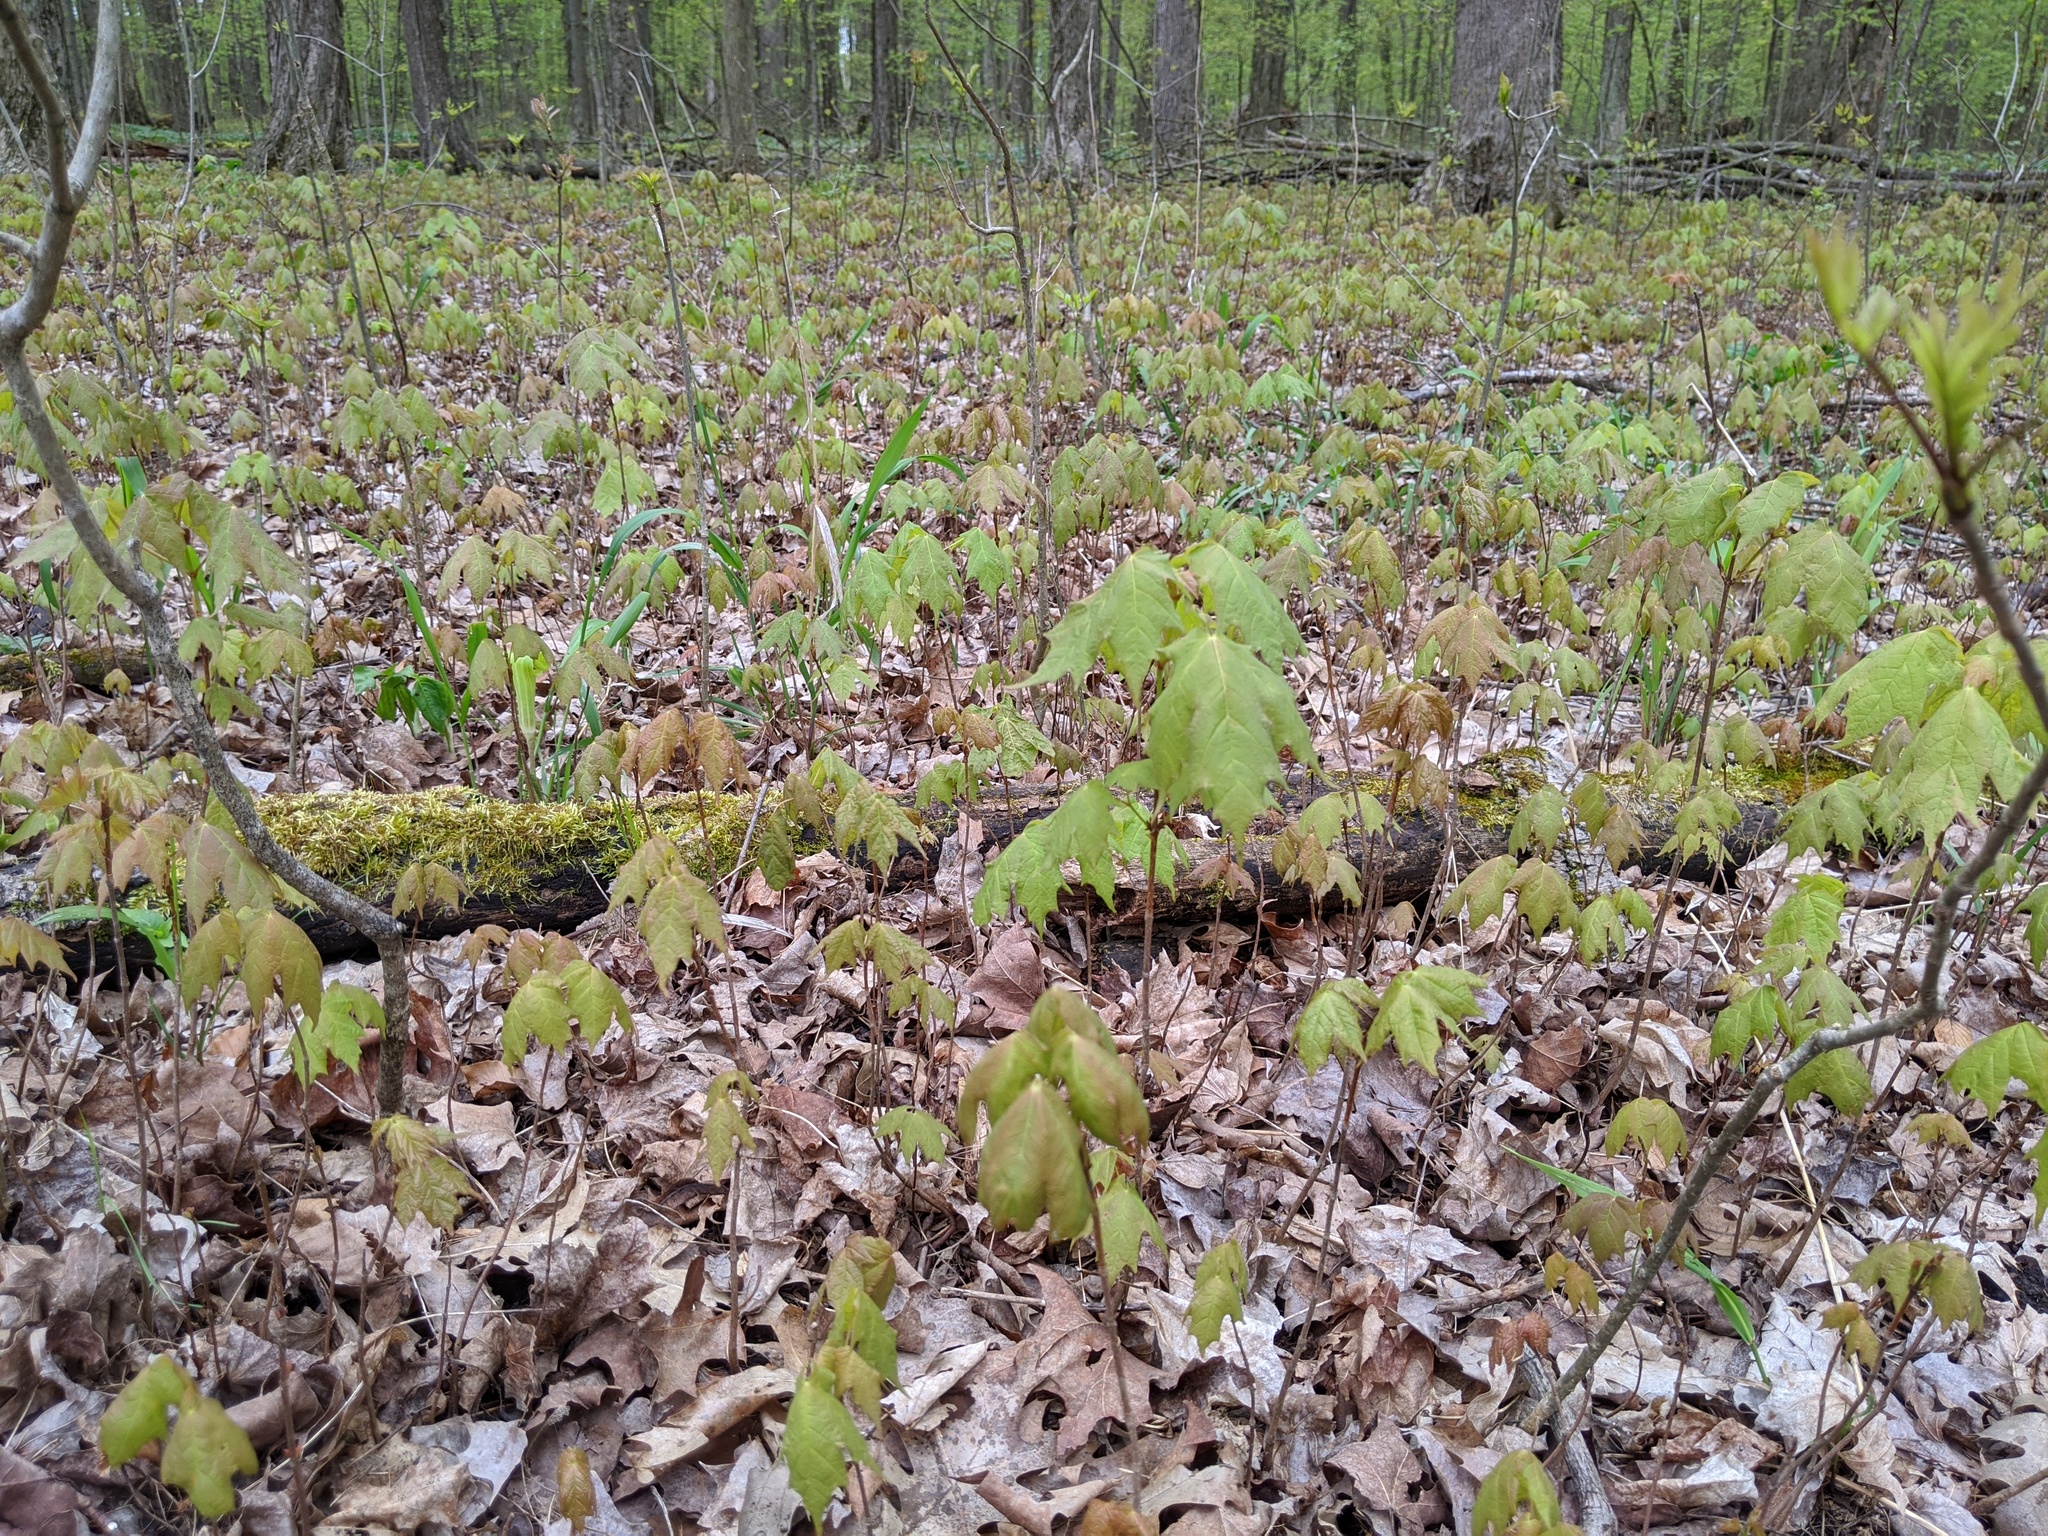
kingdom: Plantae
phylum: Tracheophyta
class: Magnoliopsida
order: Sapindales
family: Sapindaceae
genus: Acer
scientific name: Acer saccharum
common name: Sugar maple
